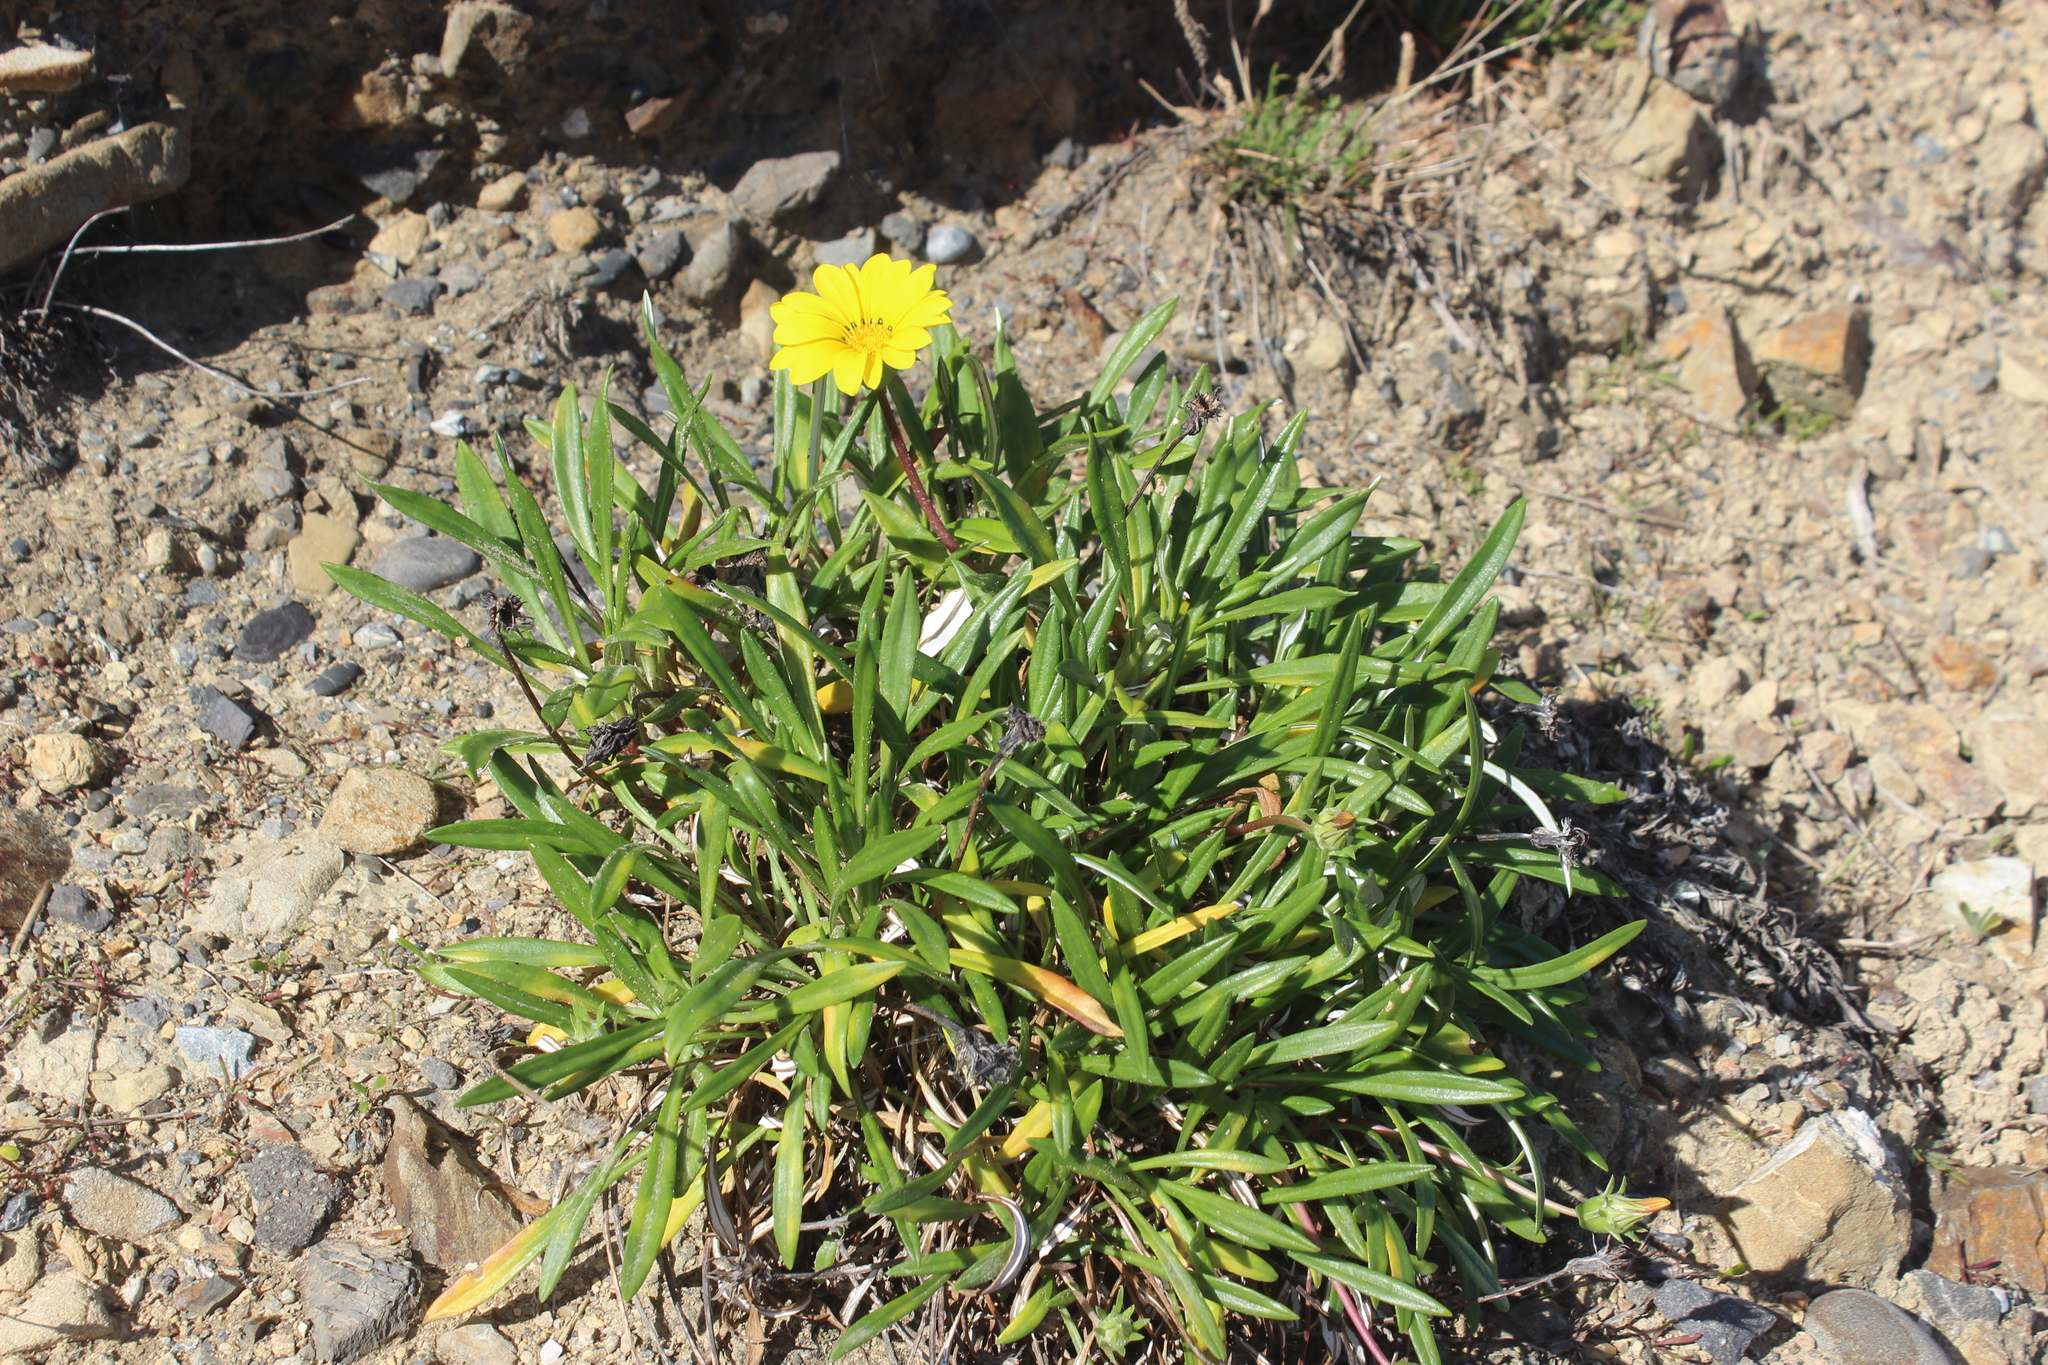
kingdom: Plantae
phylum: Tracheophyta
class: Magnoliopsida
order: Asterales
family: Asteraceae
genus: Gazania
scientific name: Gazania splendens
